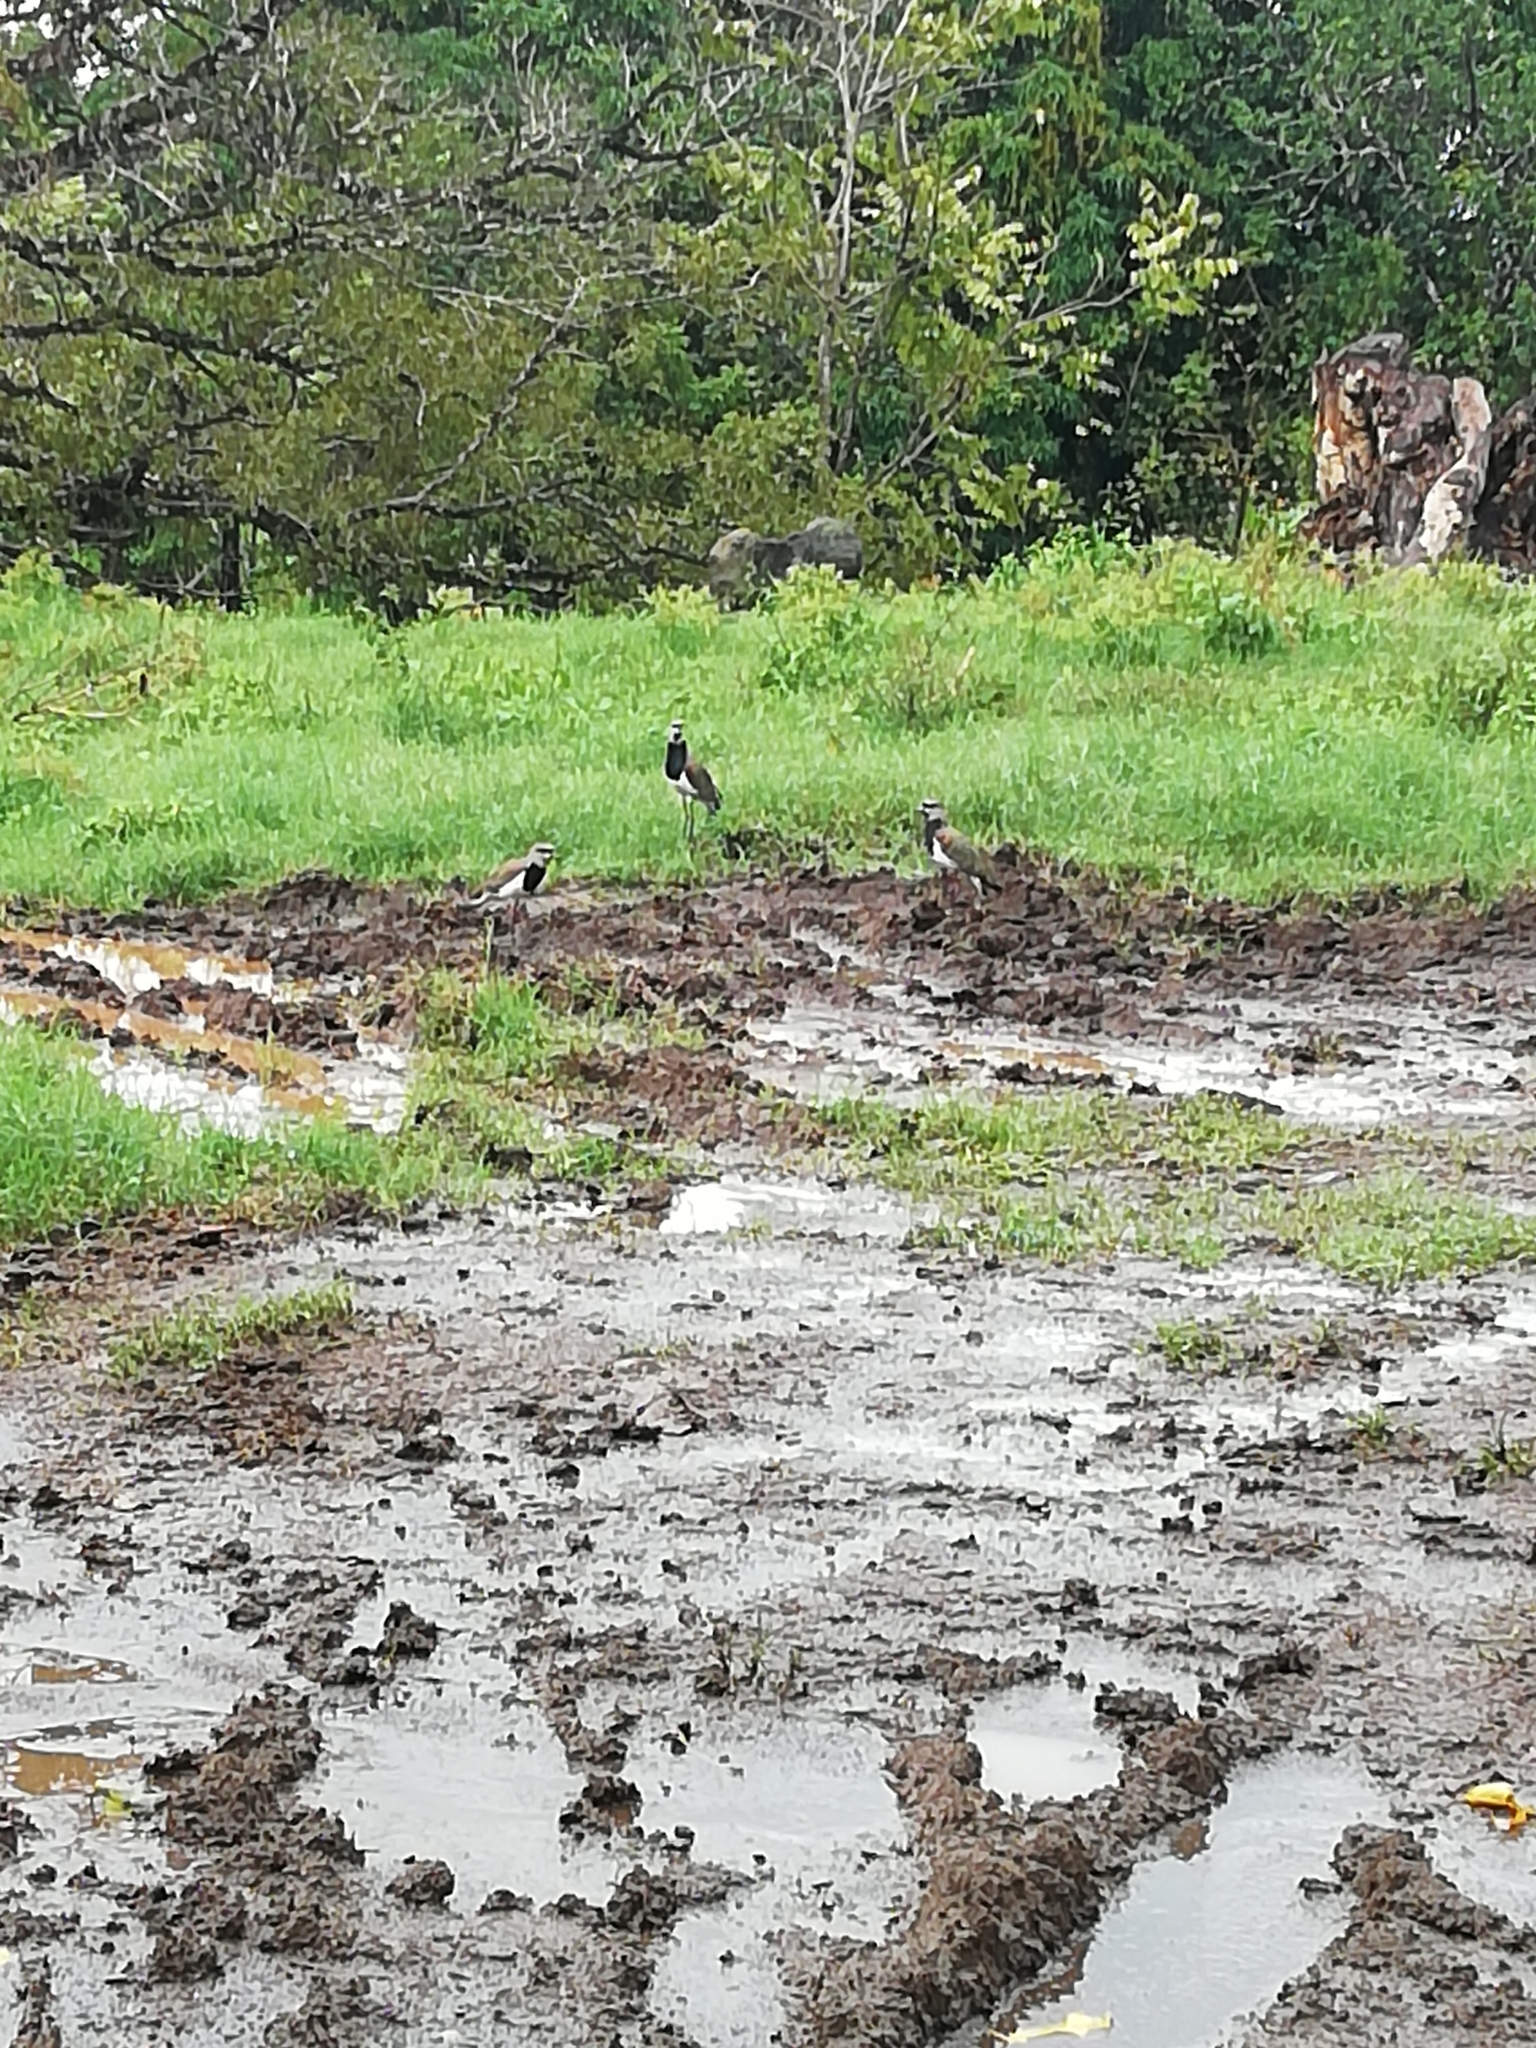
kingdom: Animalia
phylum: Chordata
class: Aves
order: Charadriiformes
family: Charadriidae
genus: Vanellus
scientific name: Vanellus chilensis
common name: Southern lapwing
